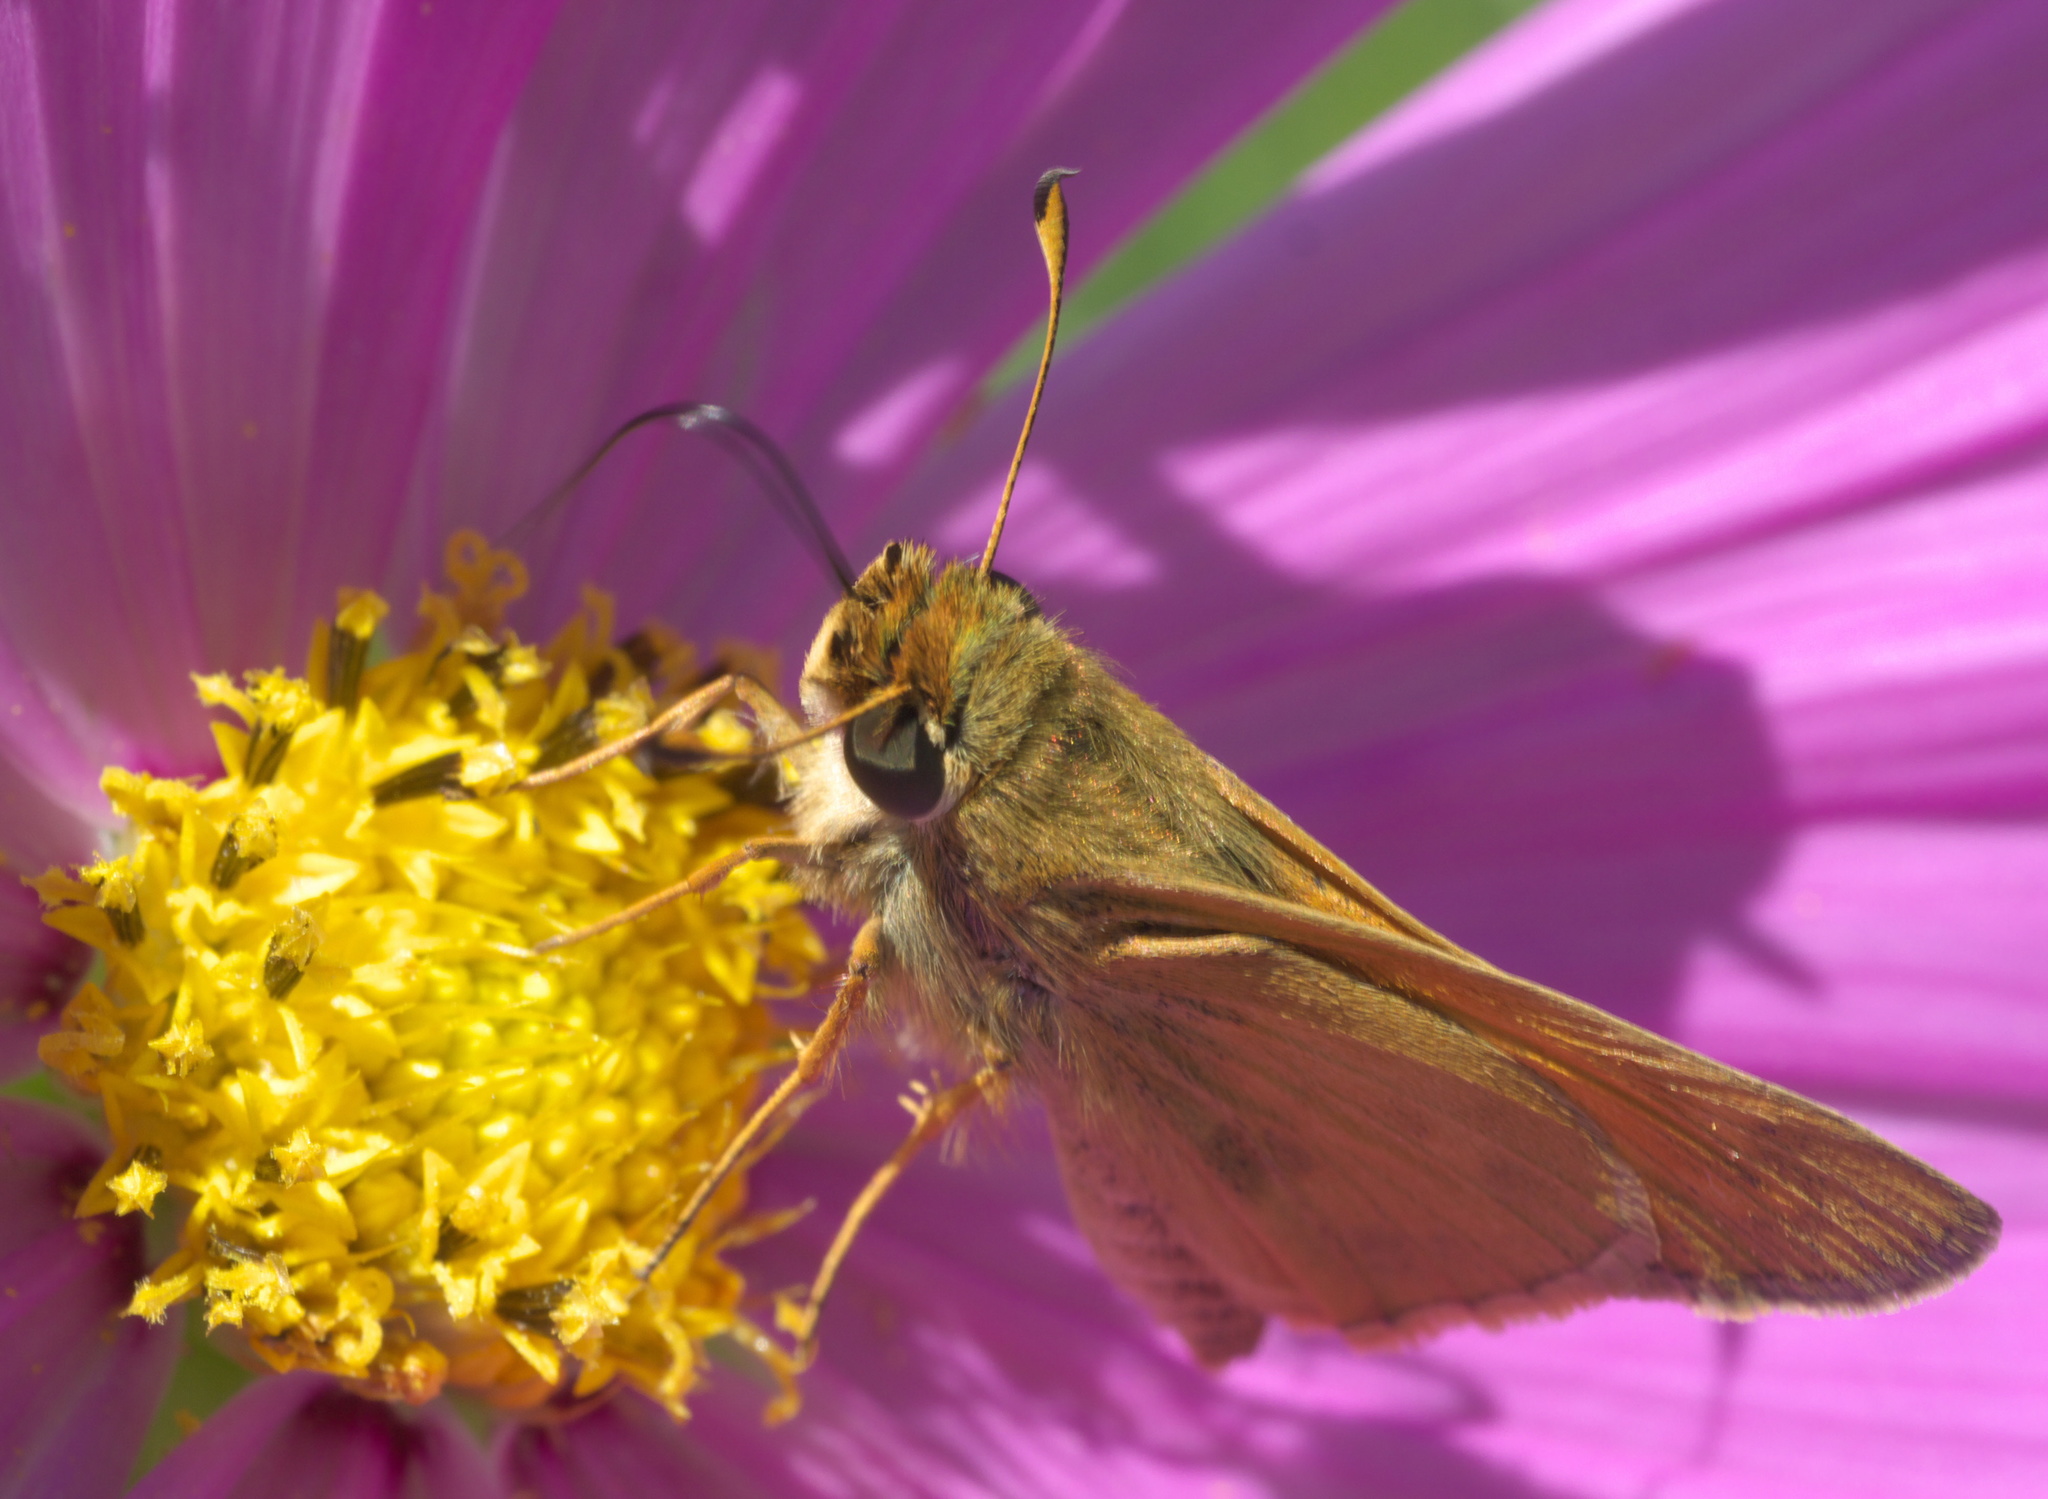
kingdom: Animalia
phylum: Arthropoda
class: Insecta
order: Lepidoptera
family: Hesperiidae
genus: Atalopedes
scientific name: Atalopedes
